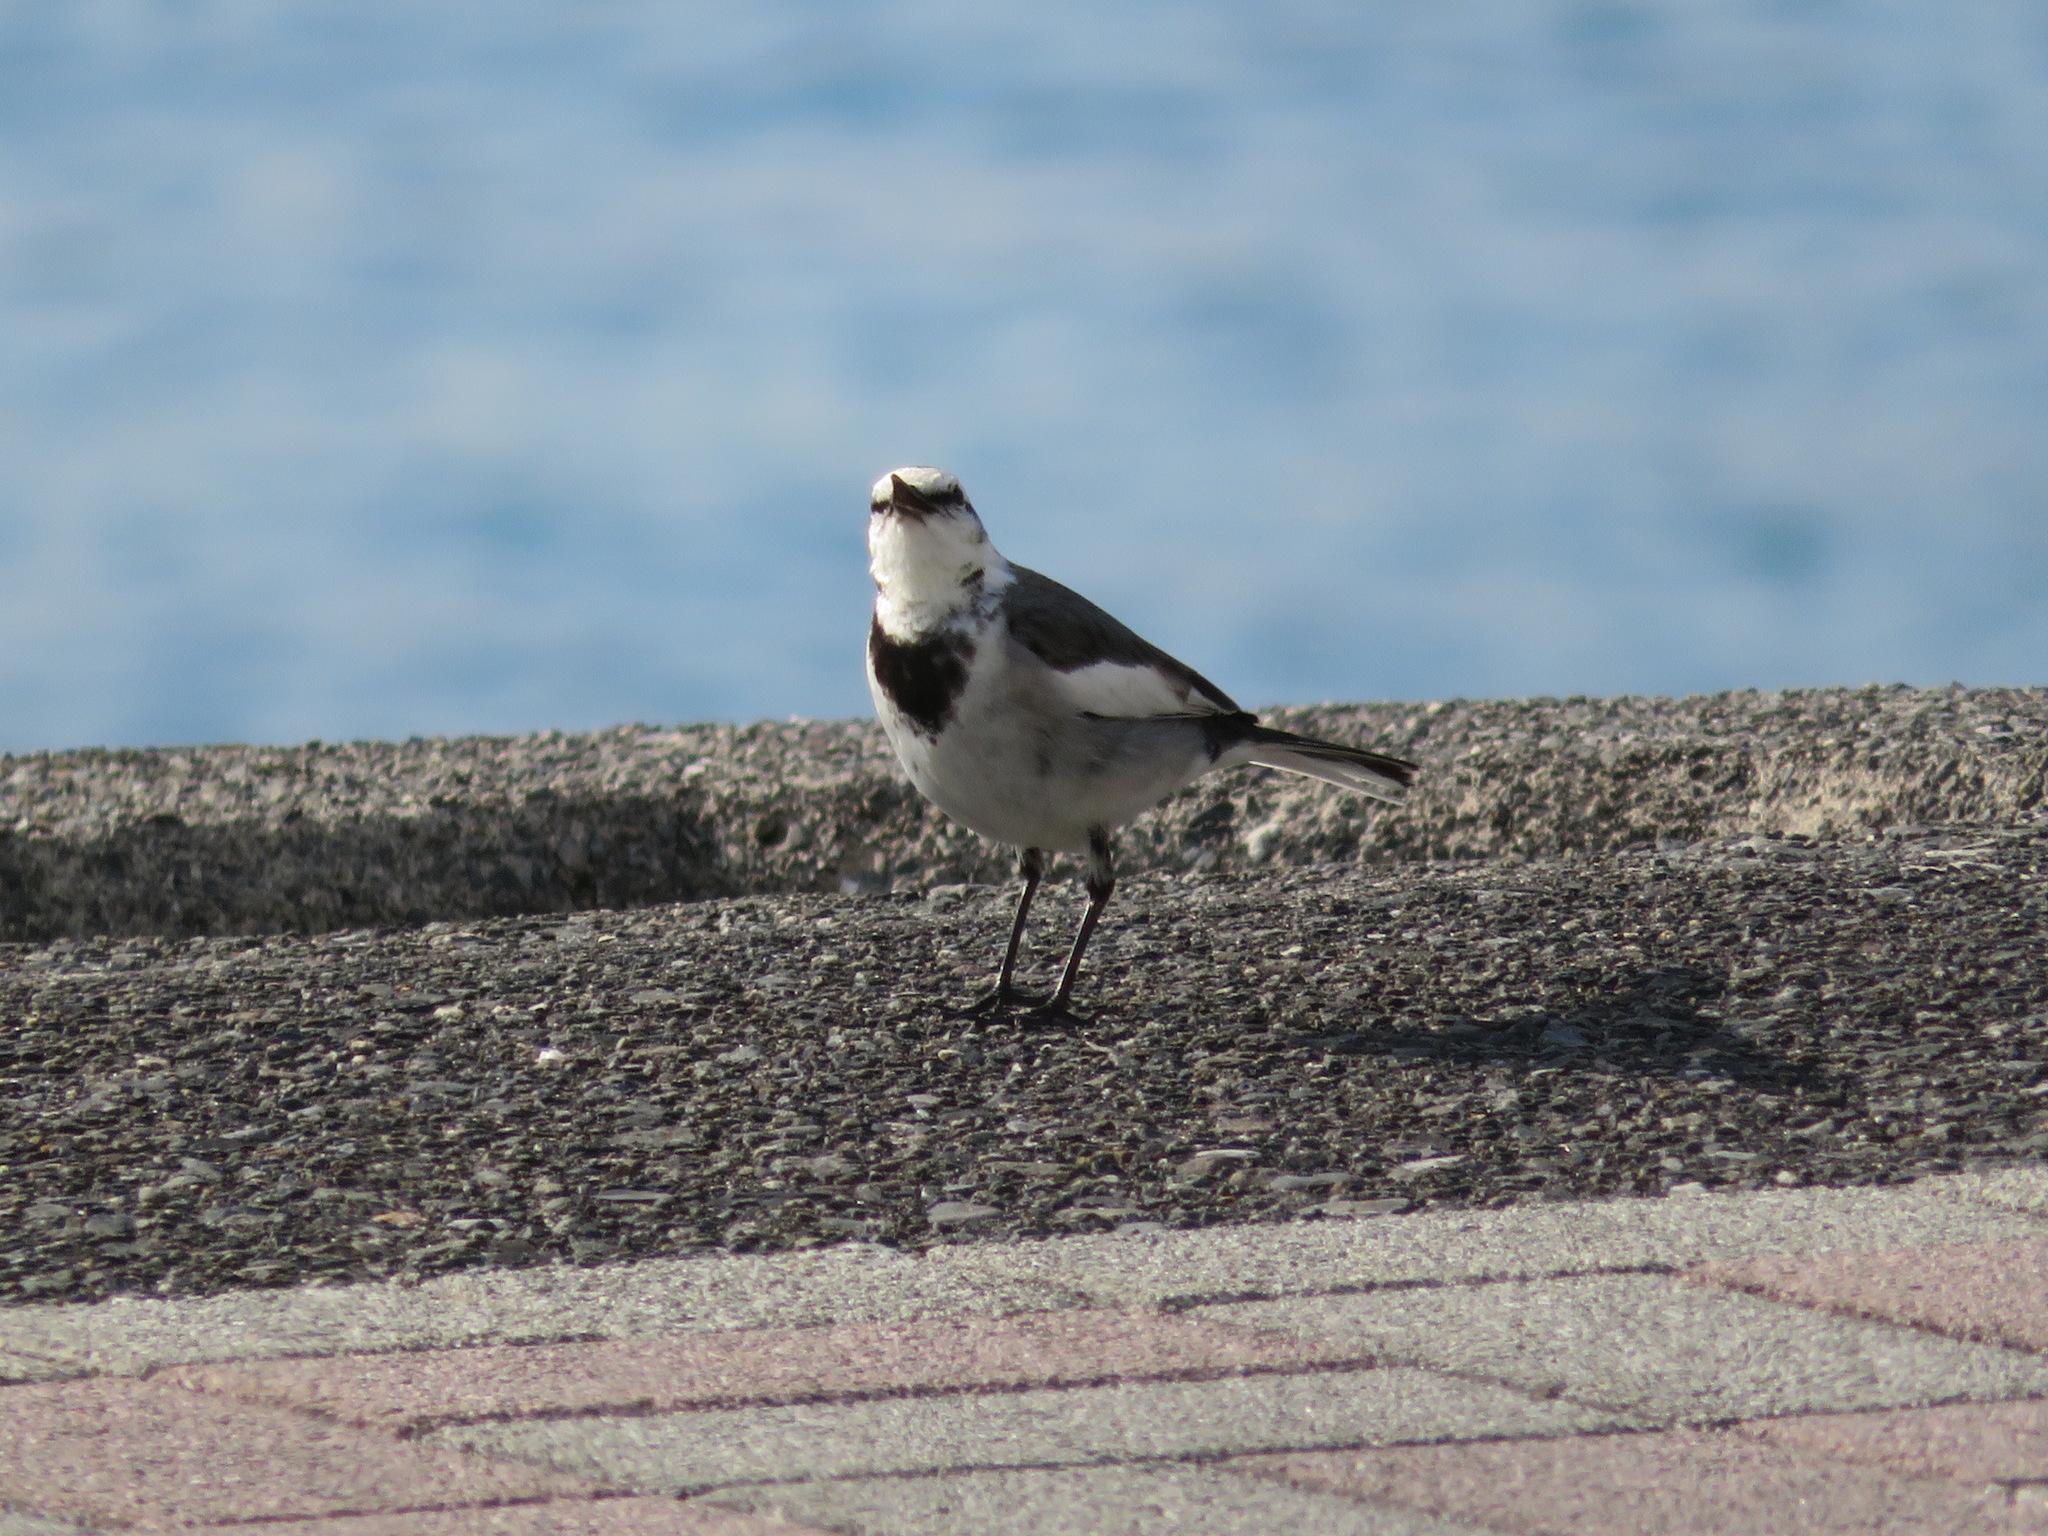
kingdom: Animalia
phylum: Chordata
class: Aves
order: Passeriformes
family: Motacillidae
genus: Motacilla
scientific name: Motacilla alba
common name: White wagtail
